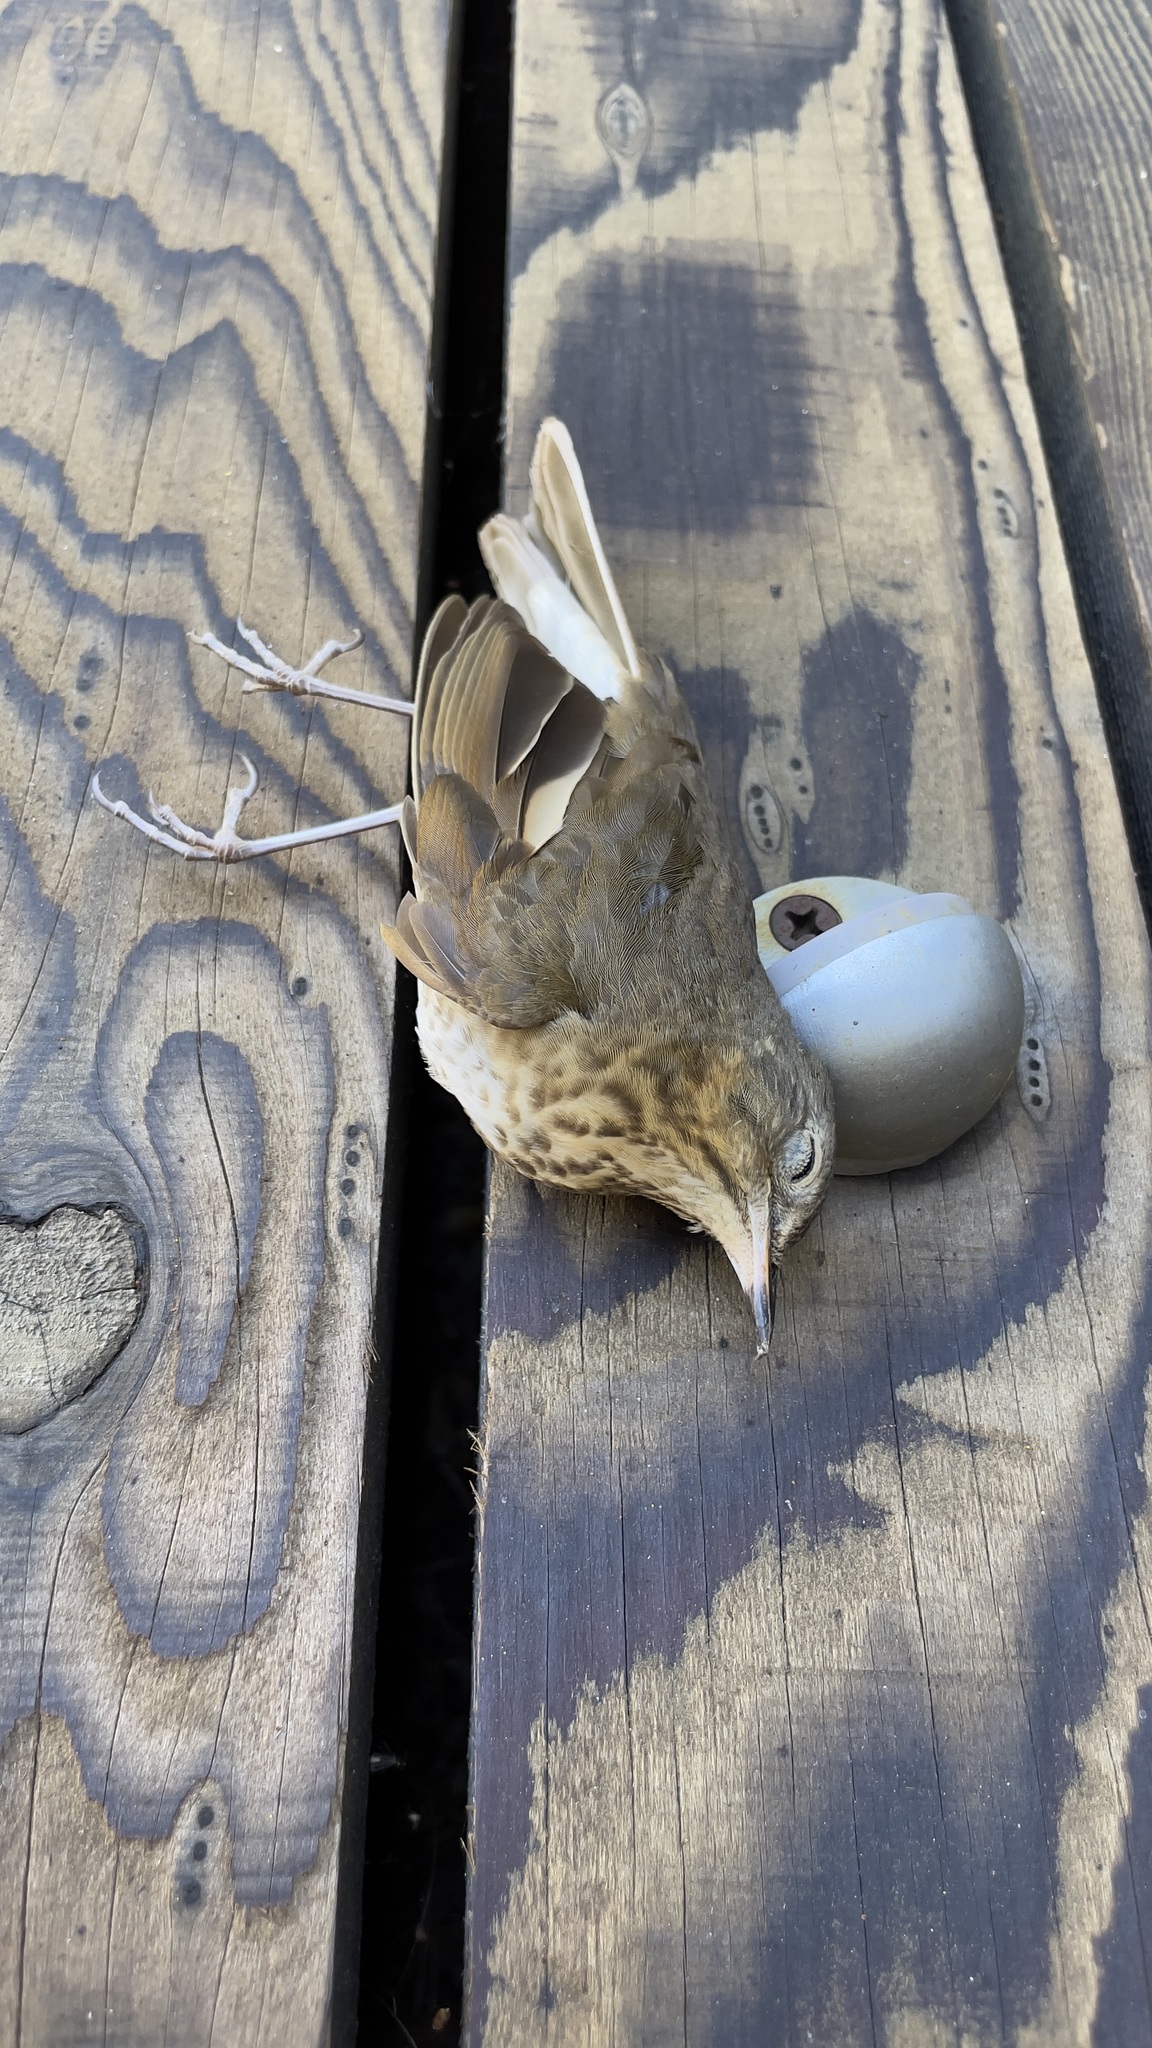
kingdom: Animalia
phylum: Chordata
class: Aves
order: Passeriformes
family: Turdidae
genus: Catharus
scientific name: Catharus ustulatus
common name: Swainson's thrush
